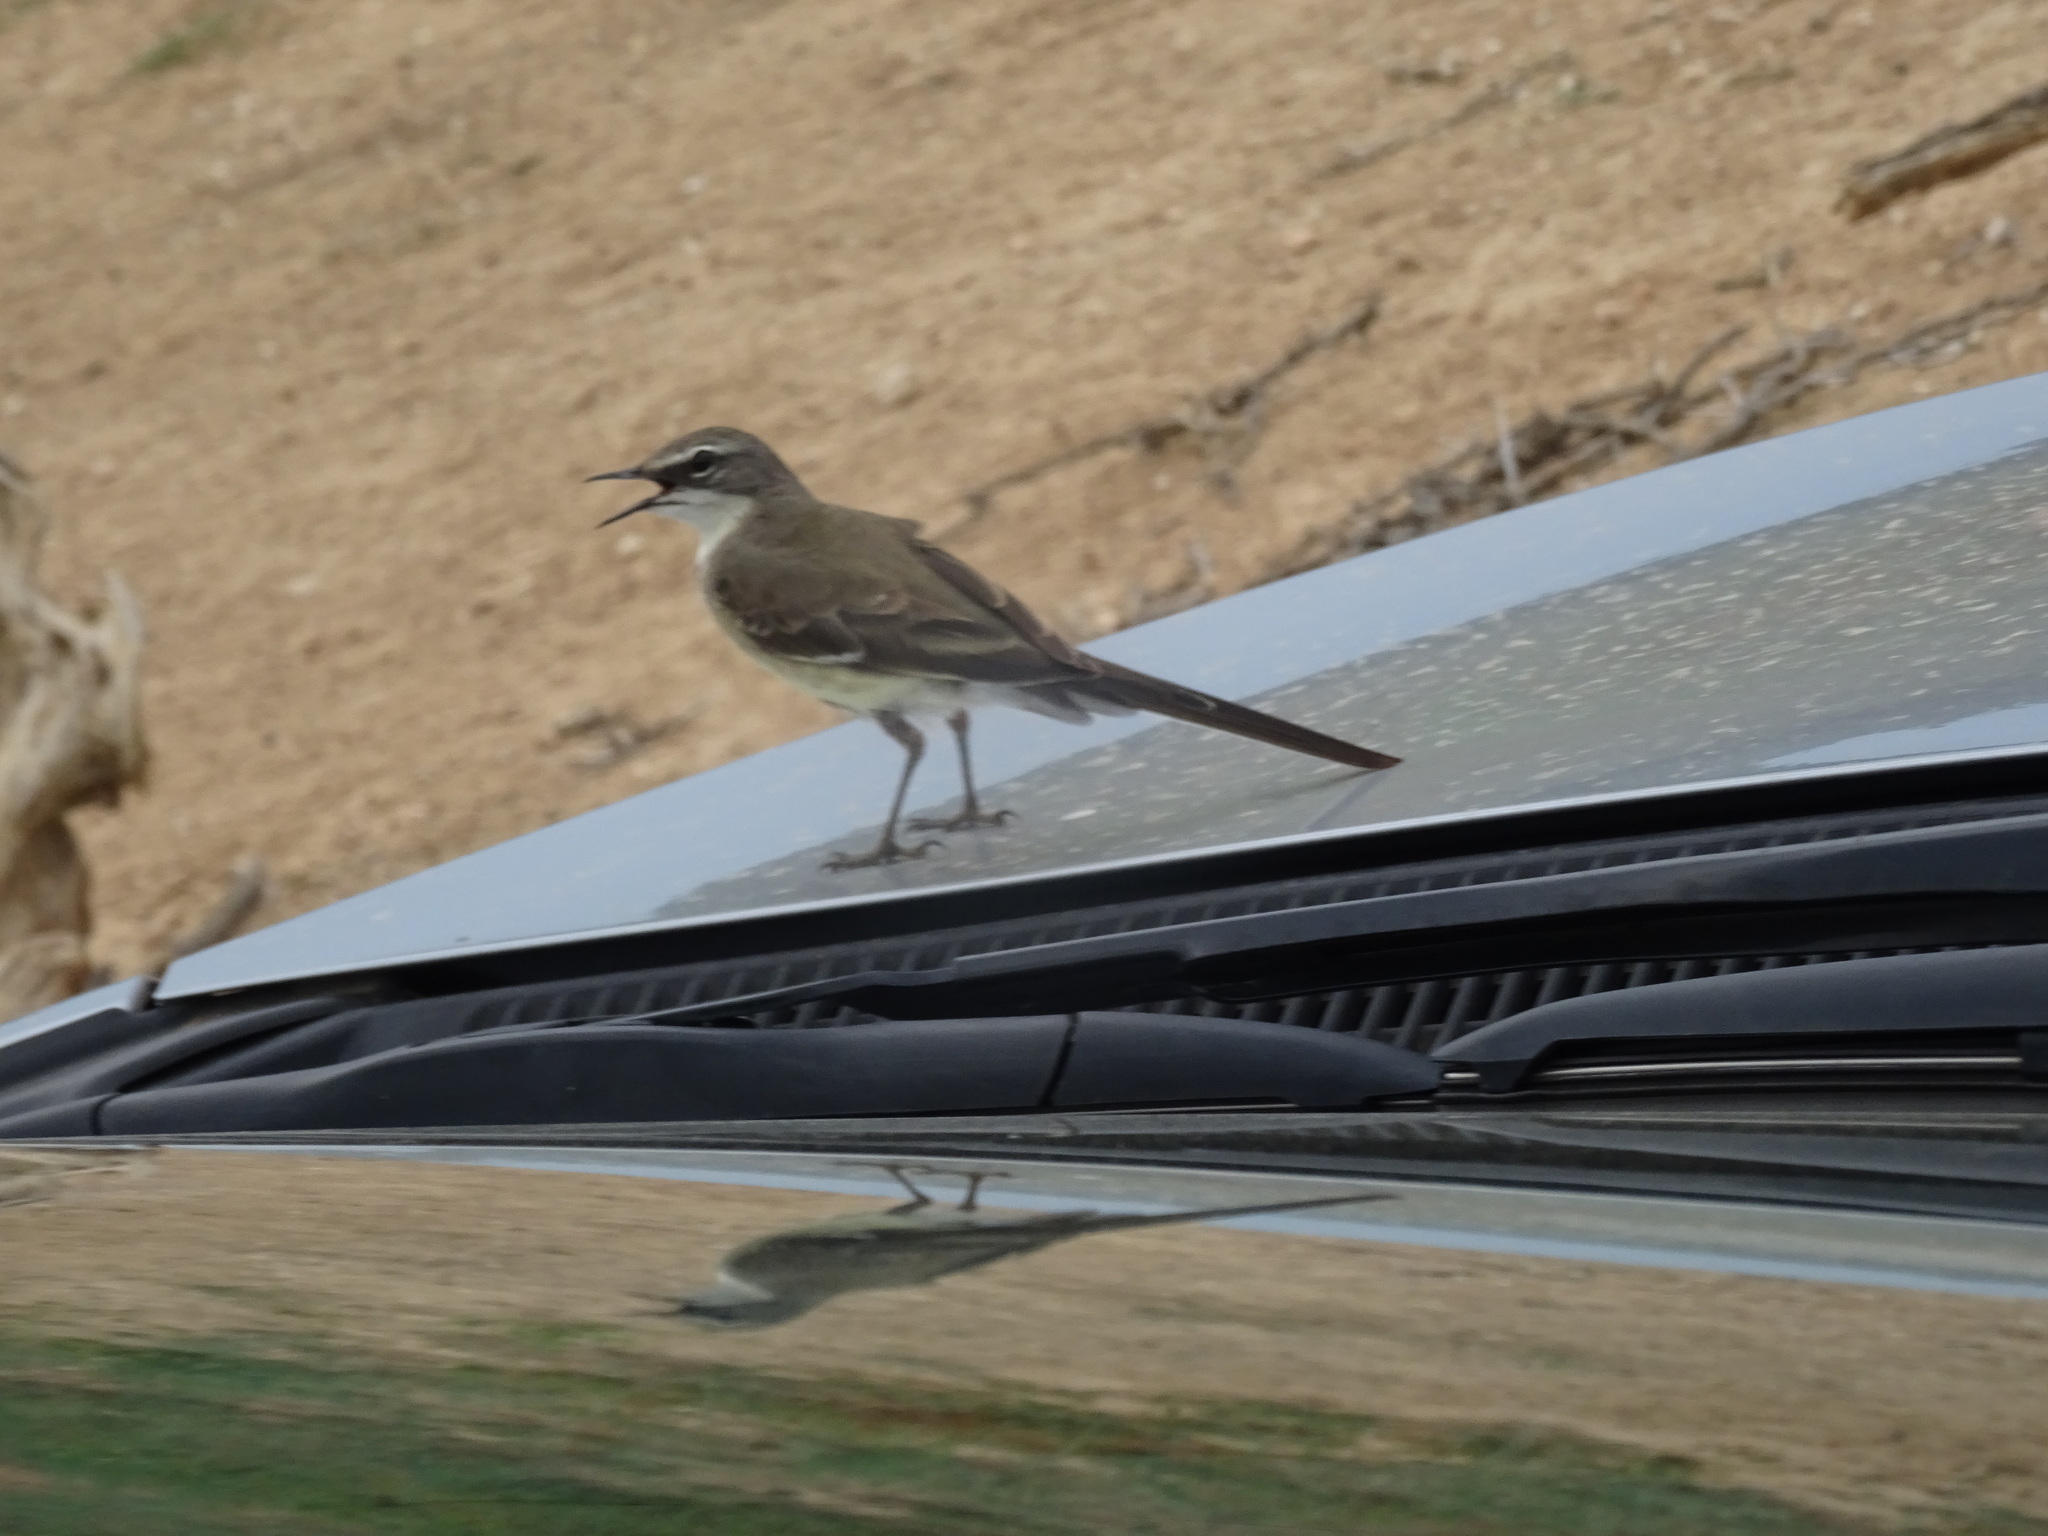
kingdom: Animalia
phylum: Chordata
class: Aves
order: Passeriformes
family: Motacillidae
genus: Motacilla
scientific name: Motacilla capensis
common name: Cape wagtail
